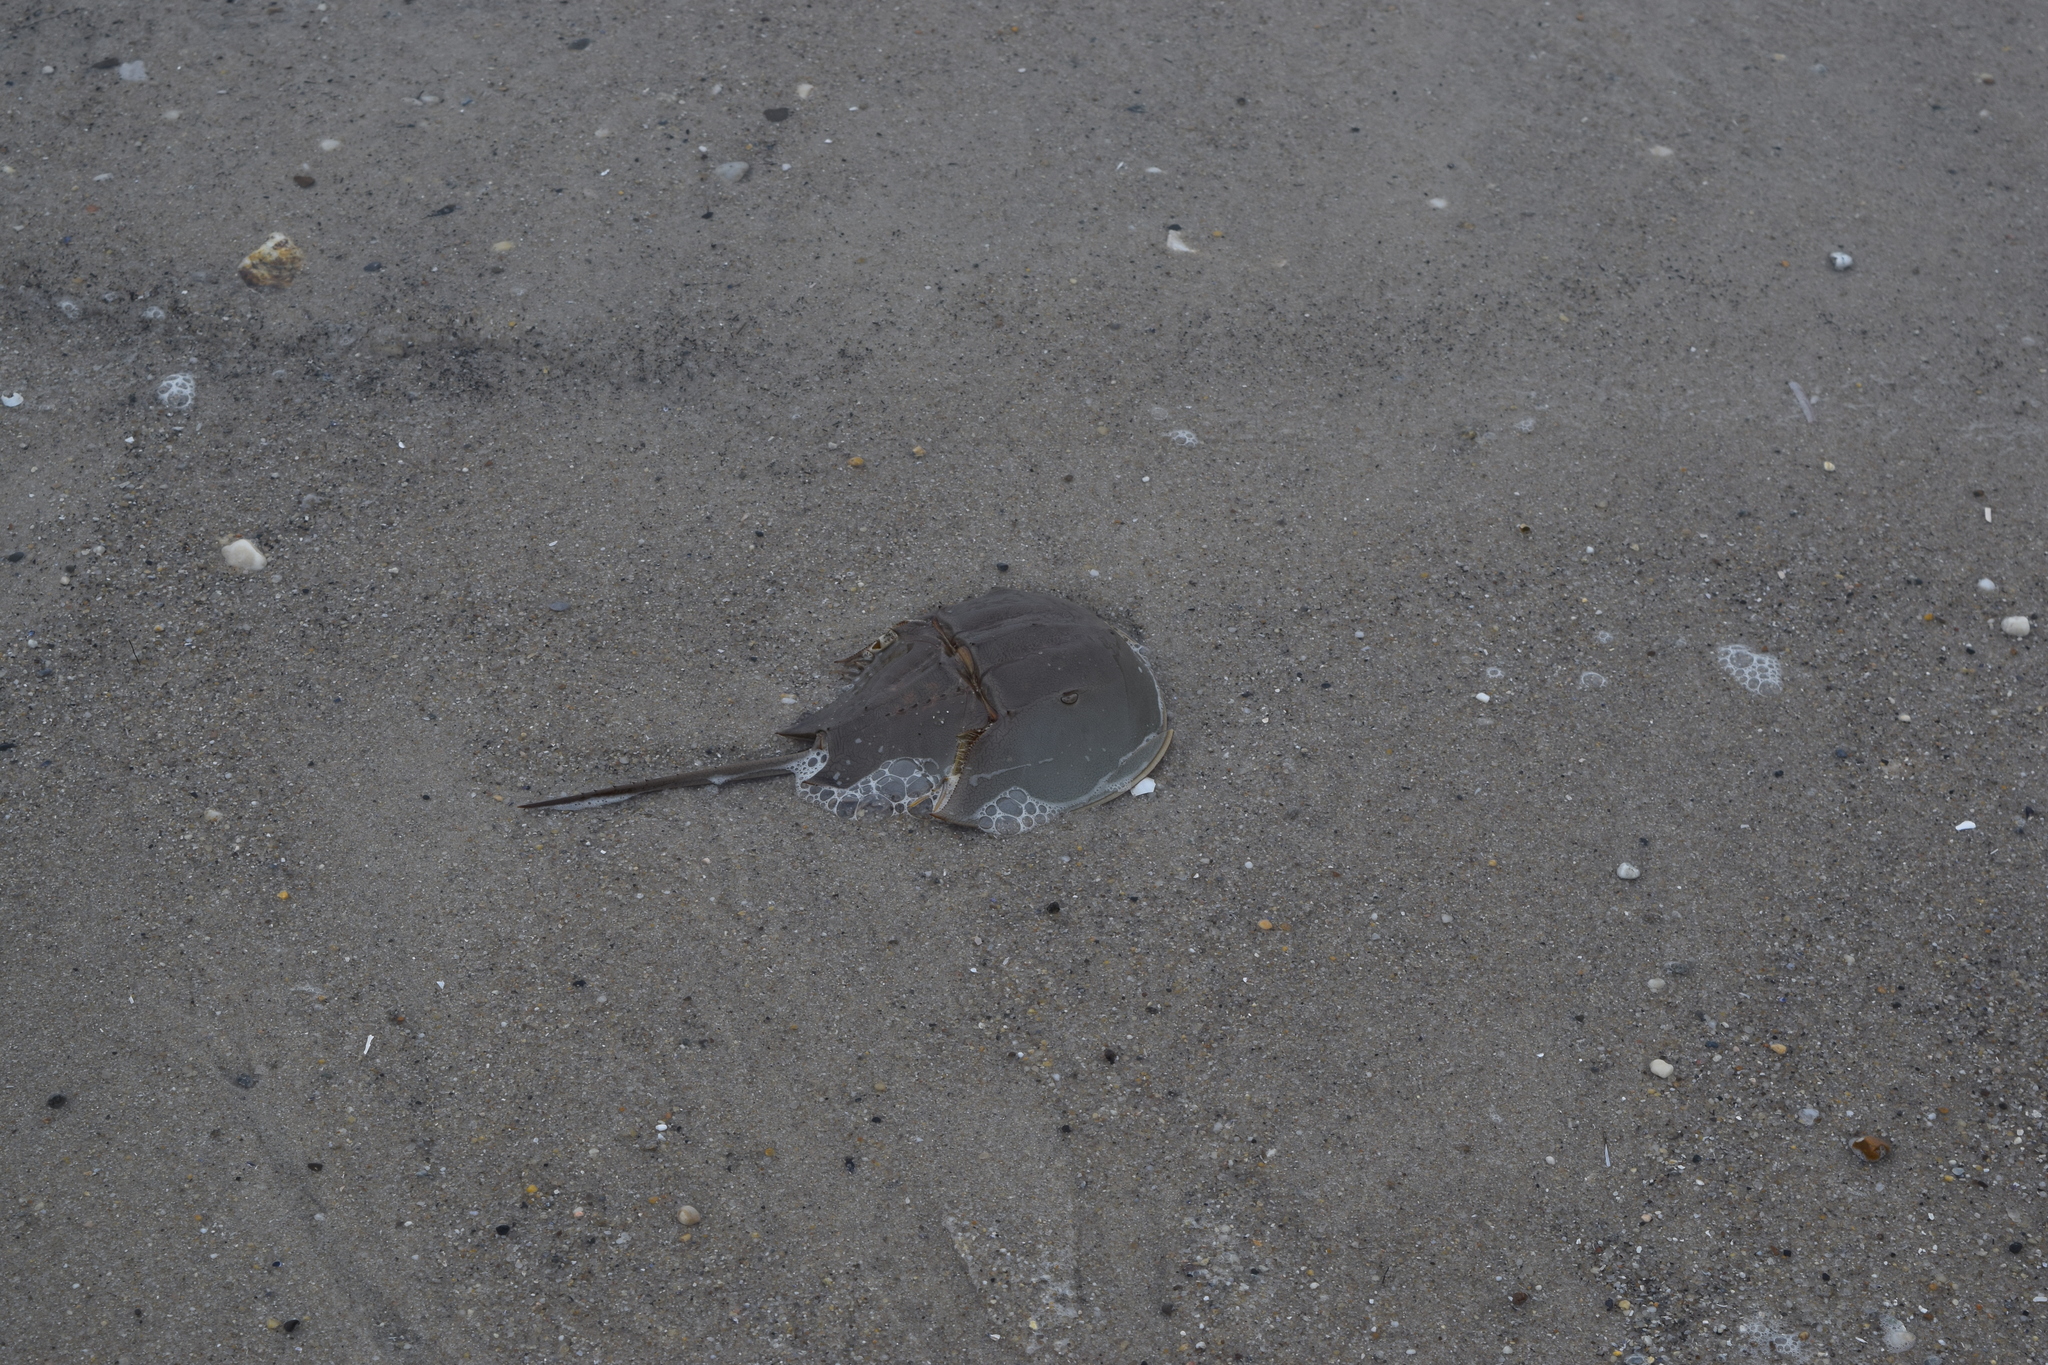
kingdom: Animalia
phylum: Arthropoda
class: Merostomata
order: Xiphosurida
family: Limulidae
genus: Limulus
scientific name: Limulus polyphemus
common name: Horseshoe crab
